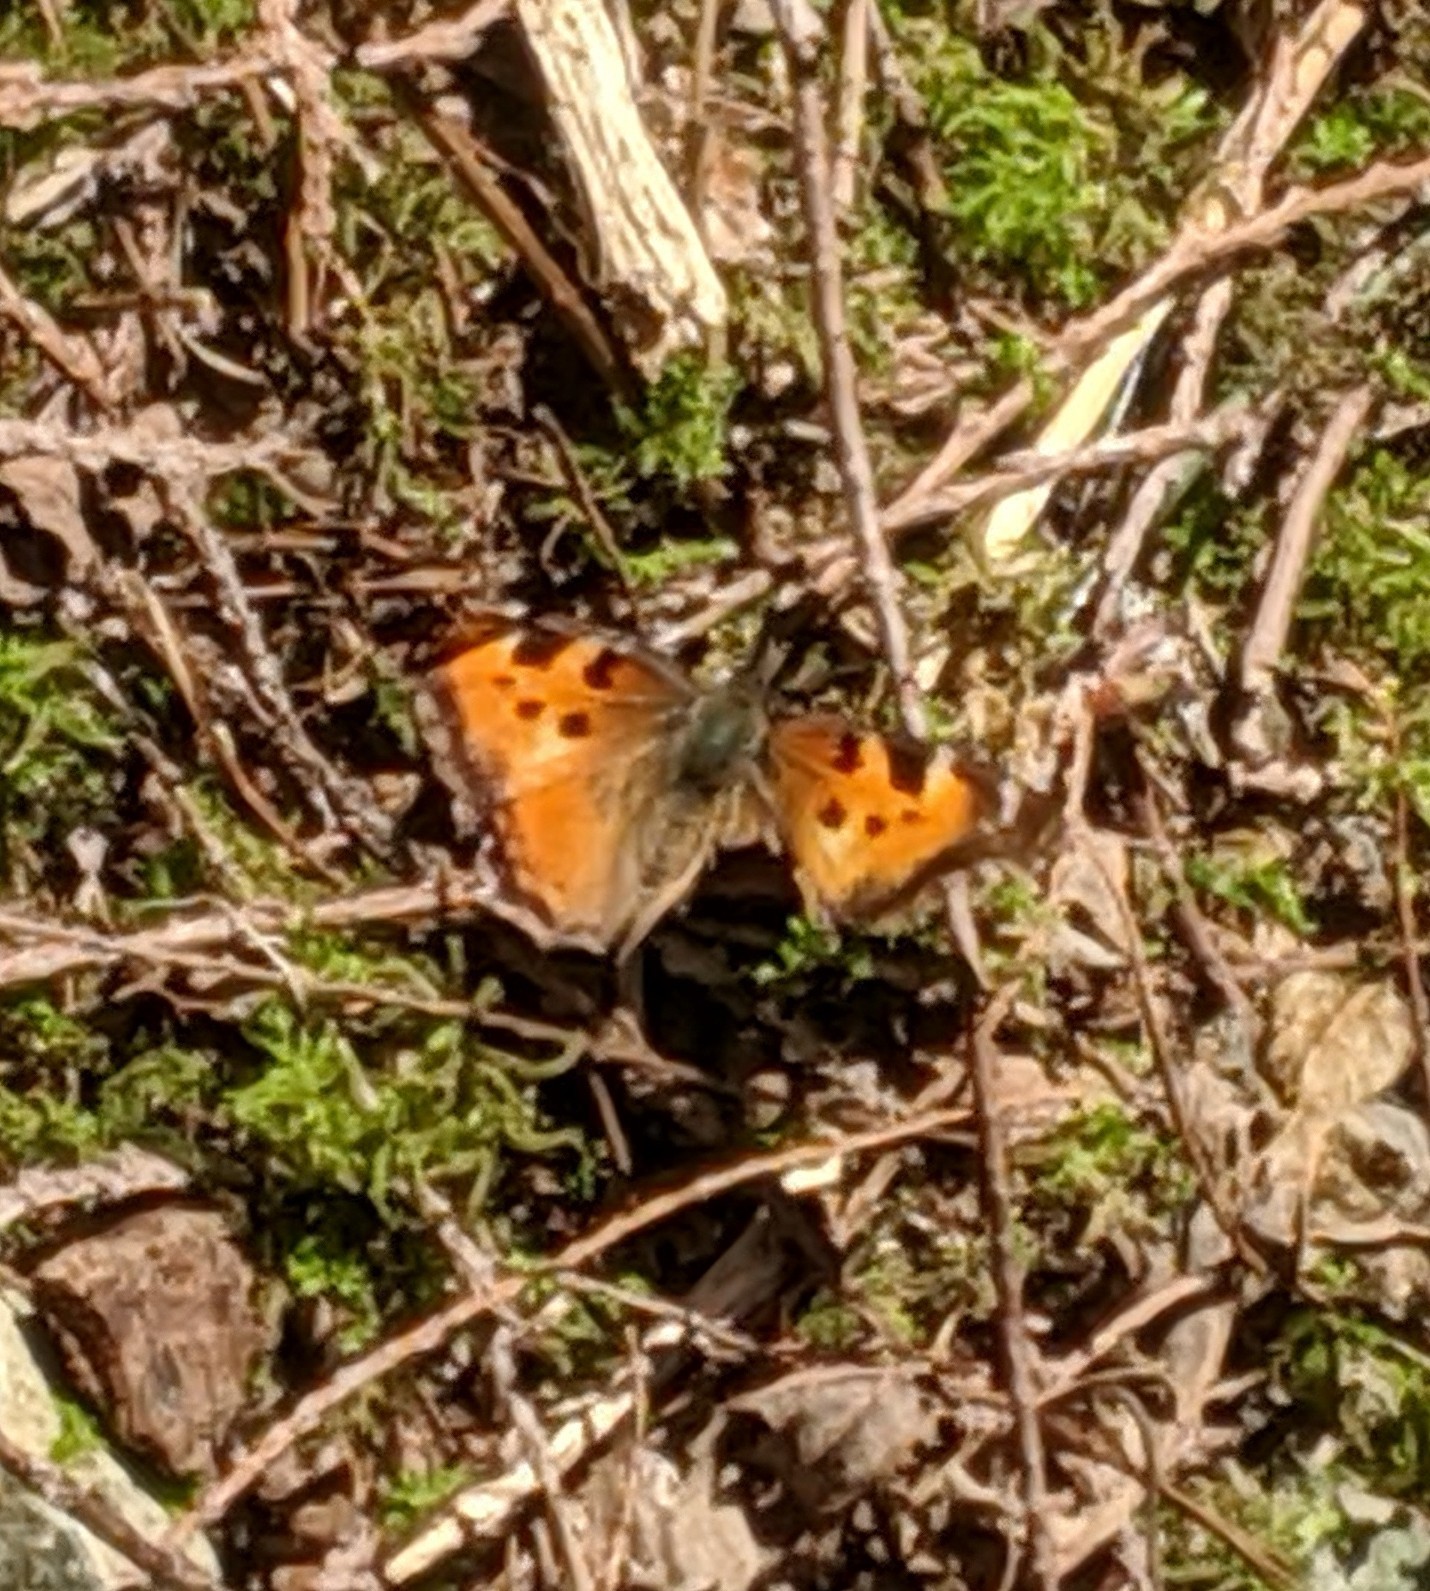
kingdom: Animalia
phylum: Arthropoda
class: Insecta
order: Lepidoptera
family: Nymphalidae
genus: Nymphalis
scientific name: Nymphalis californica
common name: California tortoiseshell
